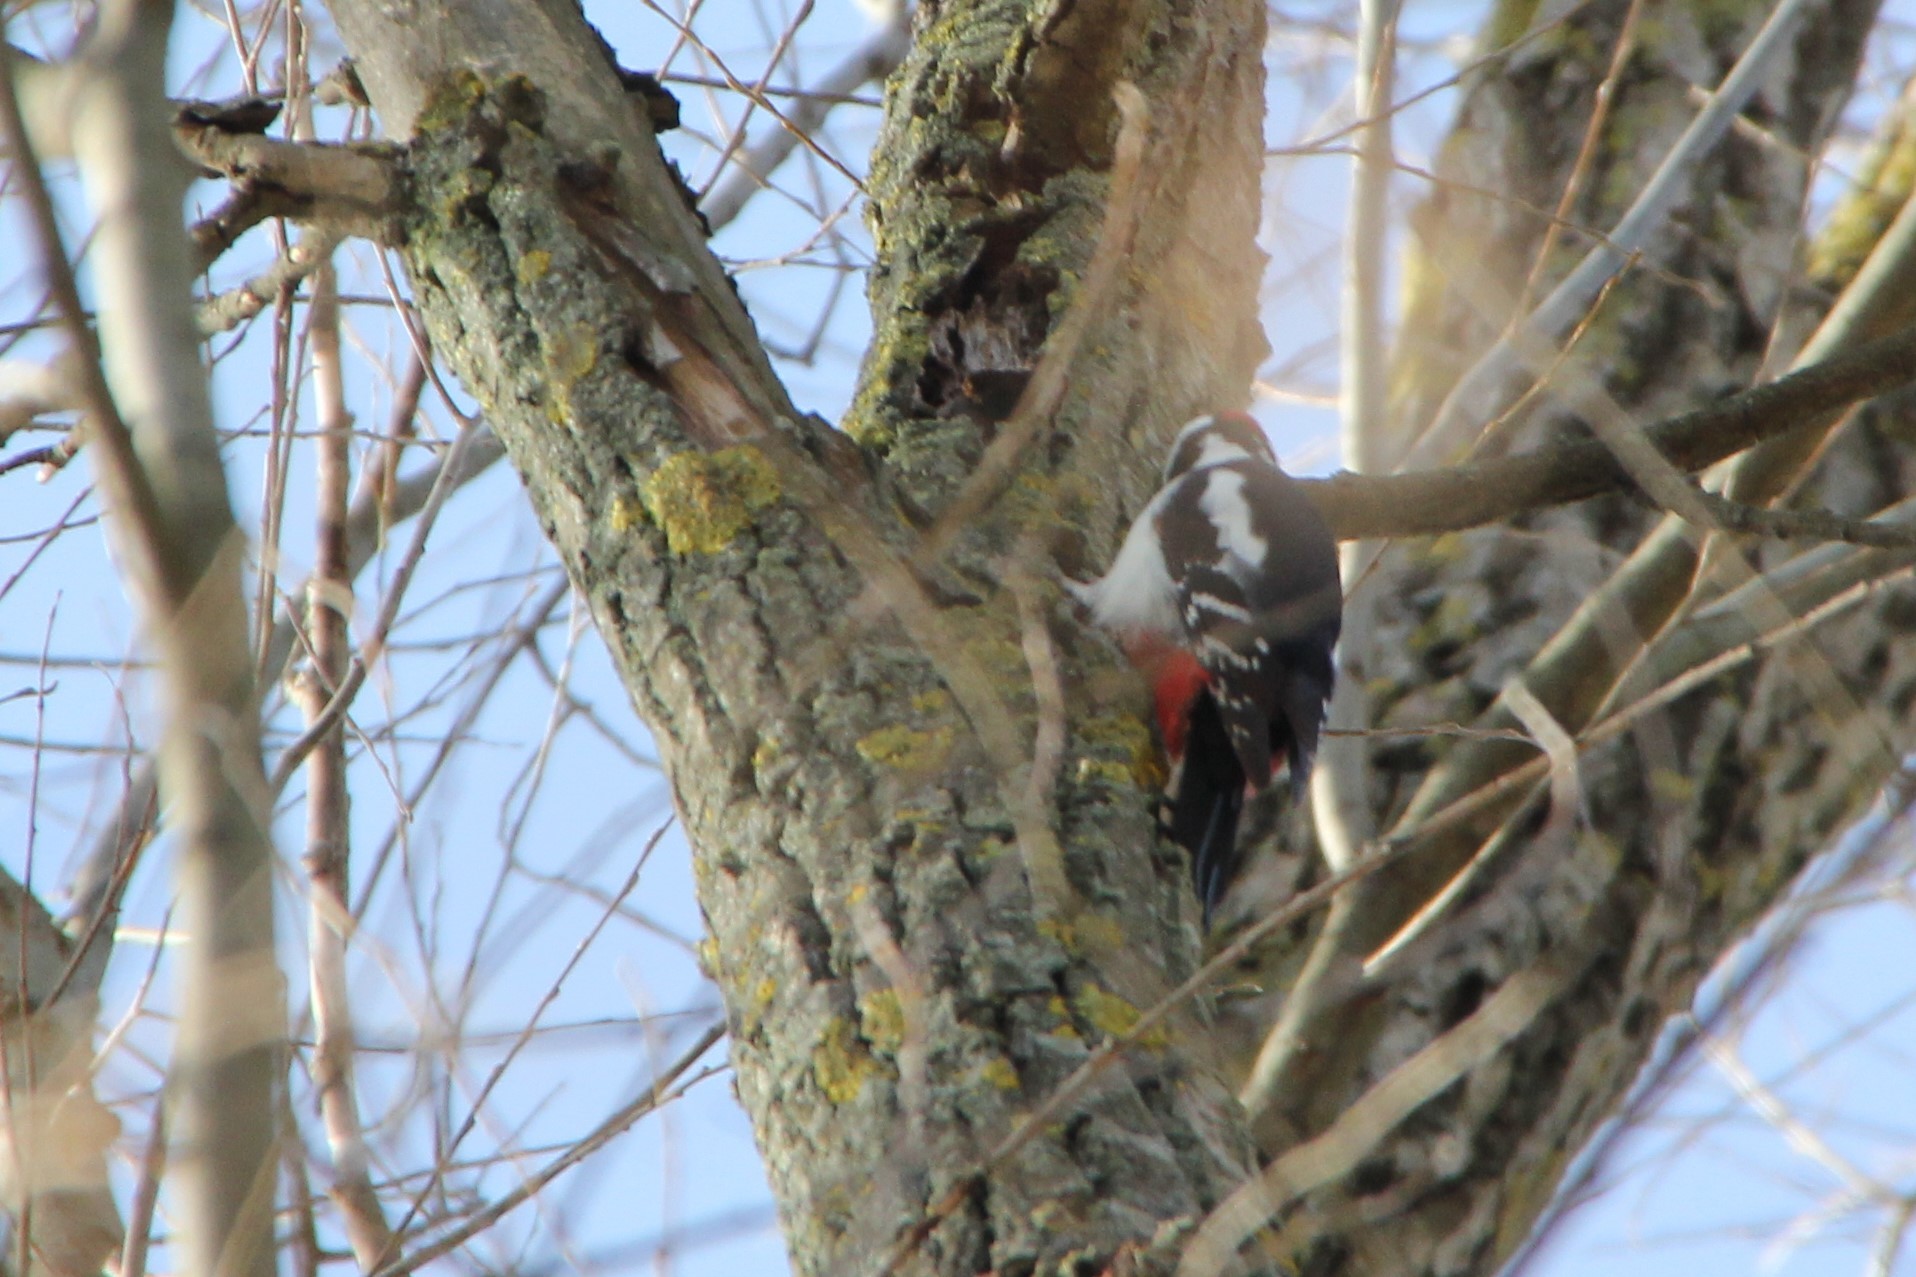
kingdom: Animalia
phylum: Chordata
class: Aves
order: Piciformes
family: Picidae
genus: Dendrocopos
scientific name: Dendrocopos major
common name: Great spotted woodpecker
